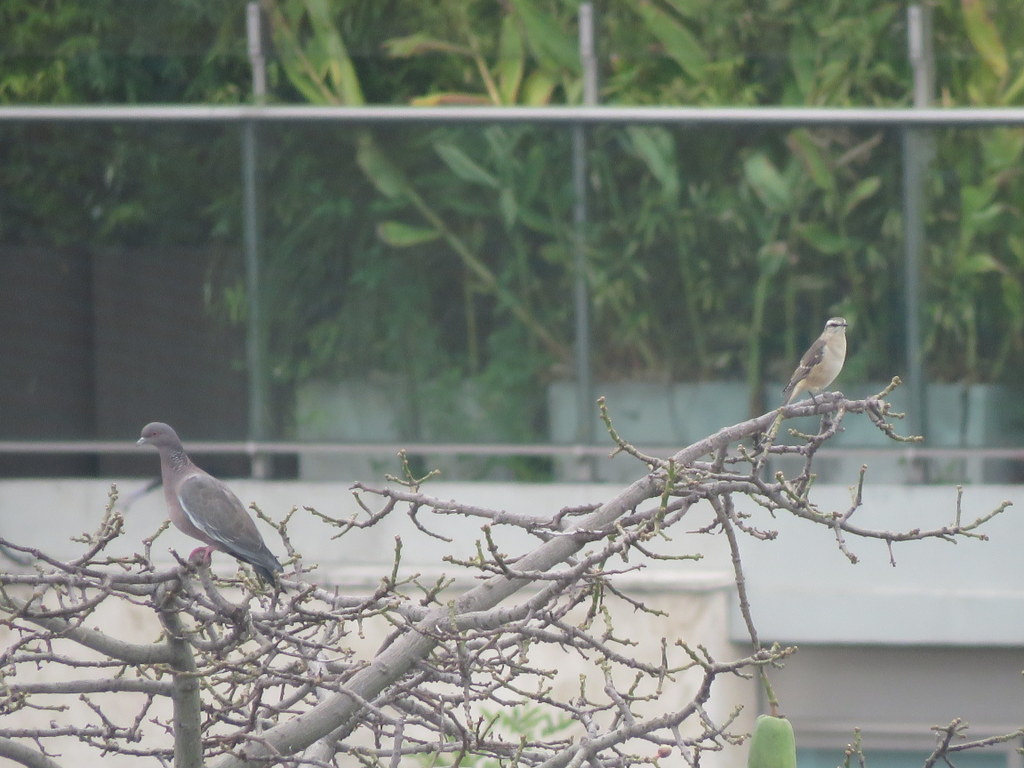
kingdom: Animalia
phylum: Chordata
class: Aves
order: Passeriformes
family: Mimidae
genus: Mimus
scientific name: Mimus saturninus
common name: Chalk-browed mockingbird
